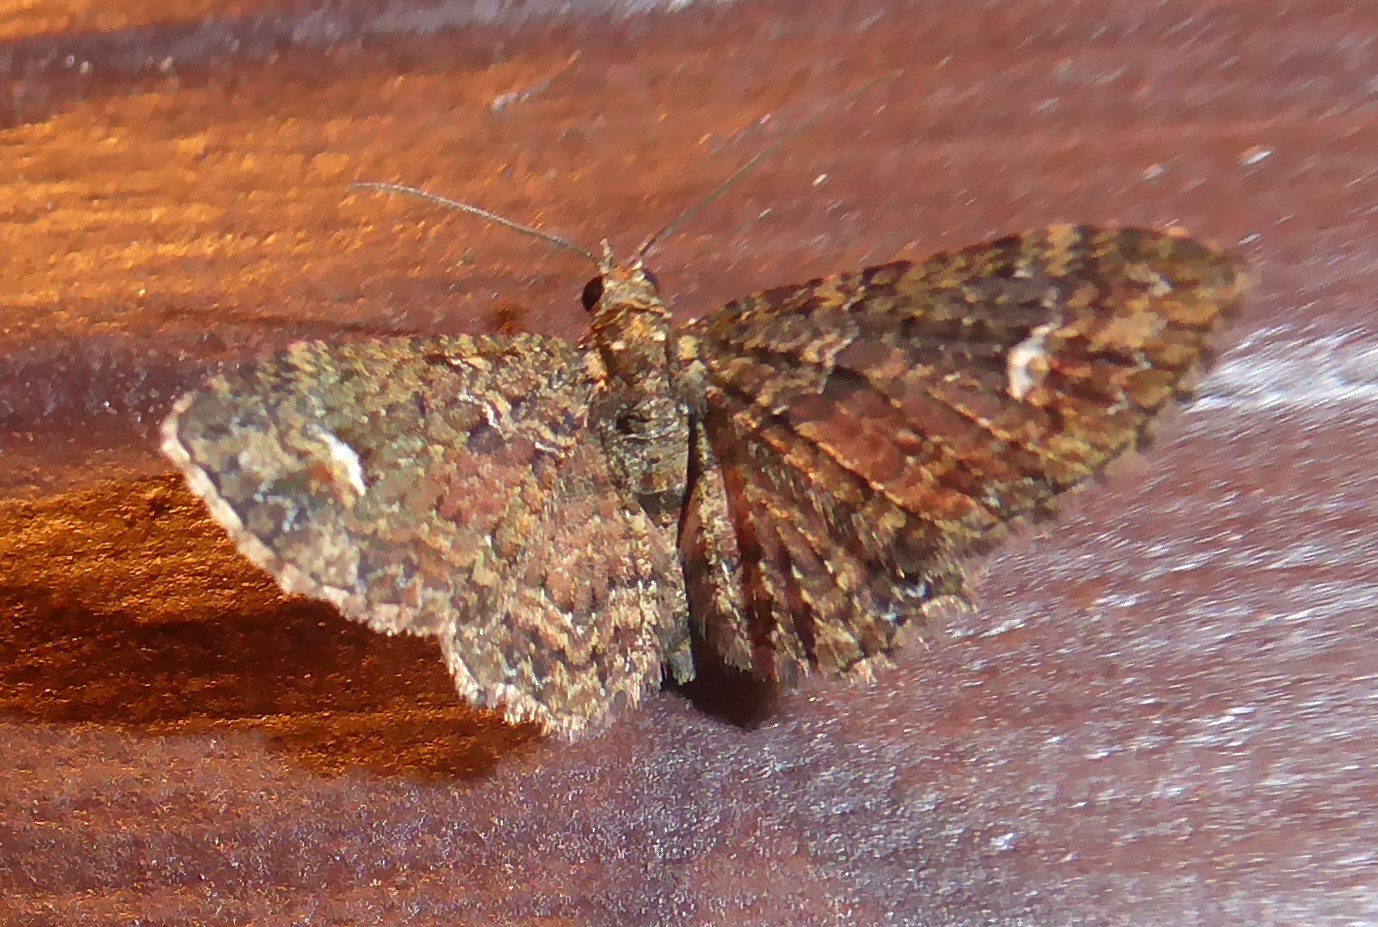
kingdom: Animalia
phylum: Arthropoda
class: Insecta
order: Lepidoptera
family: Geometridae
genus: Pasiphilodes
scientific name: Pasiphilodes testulata
